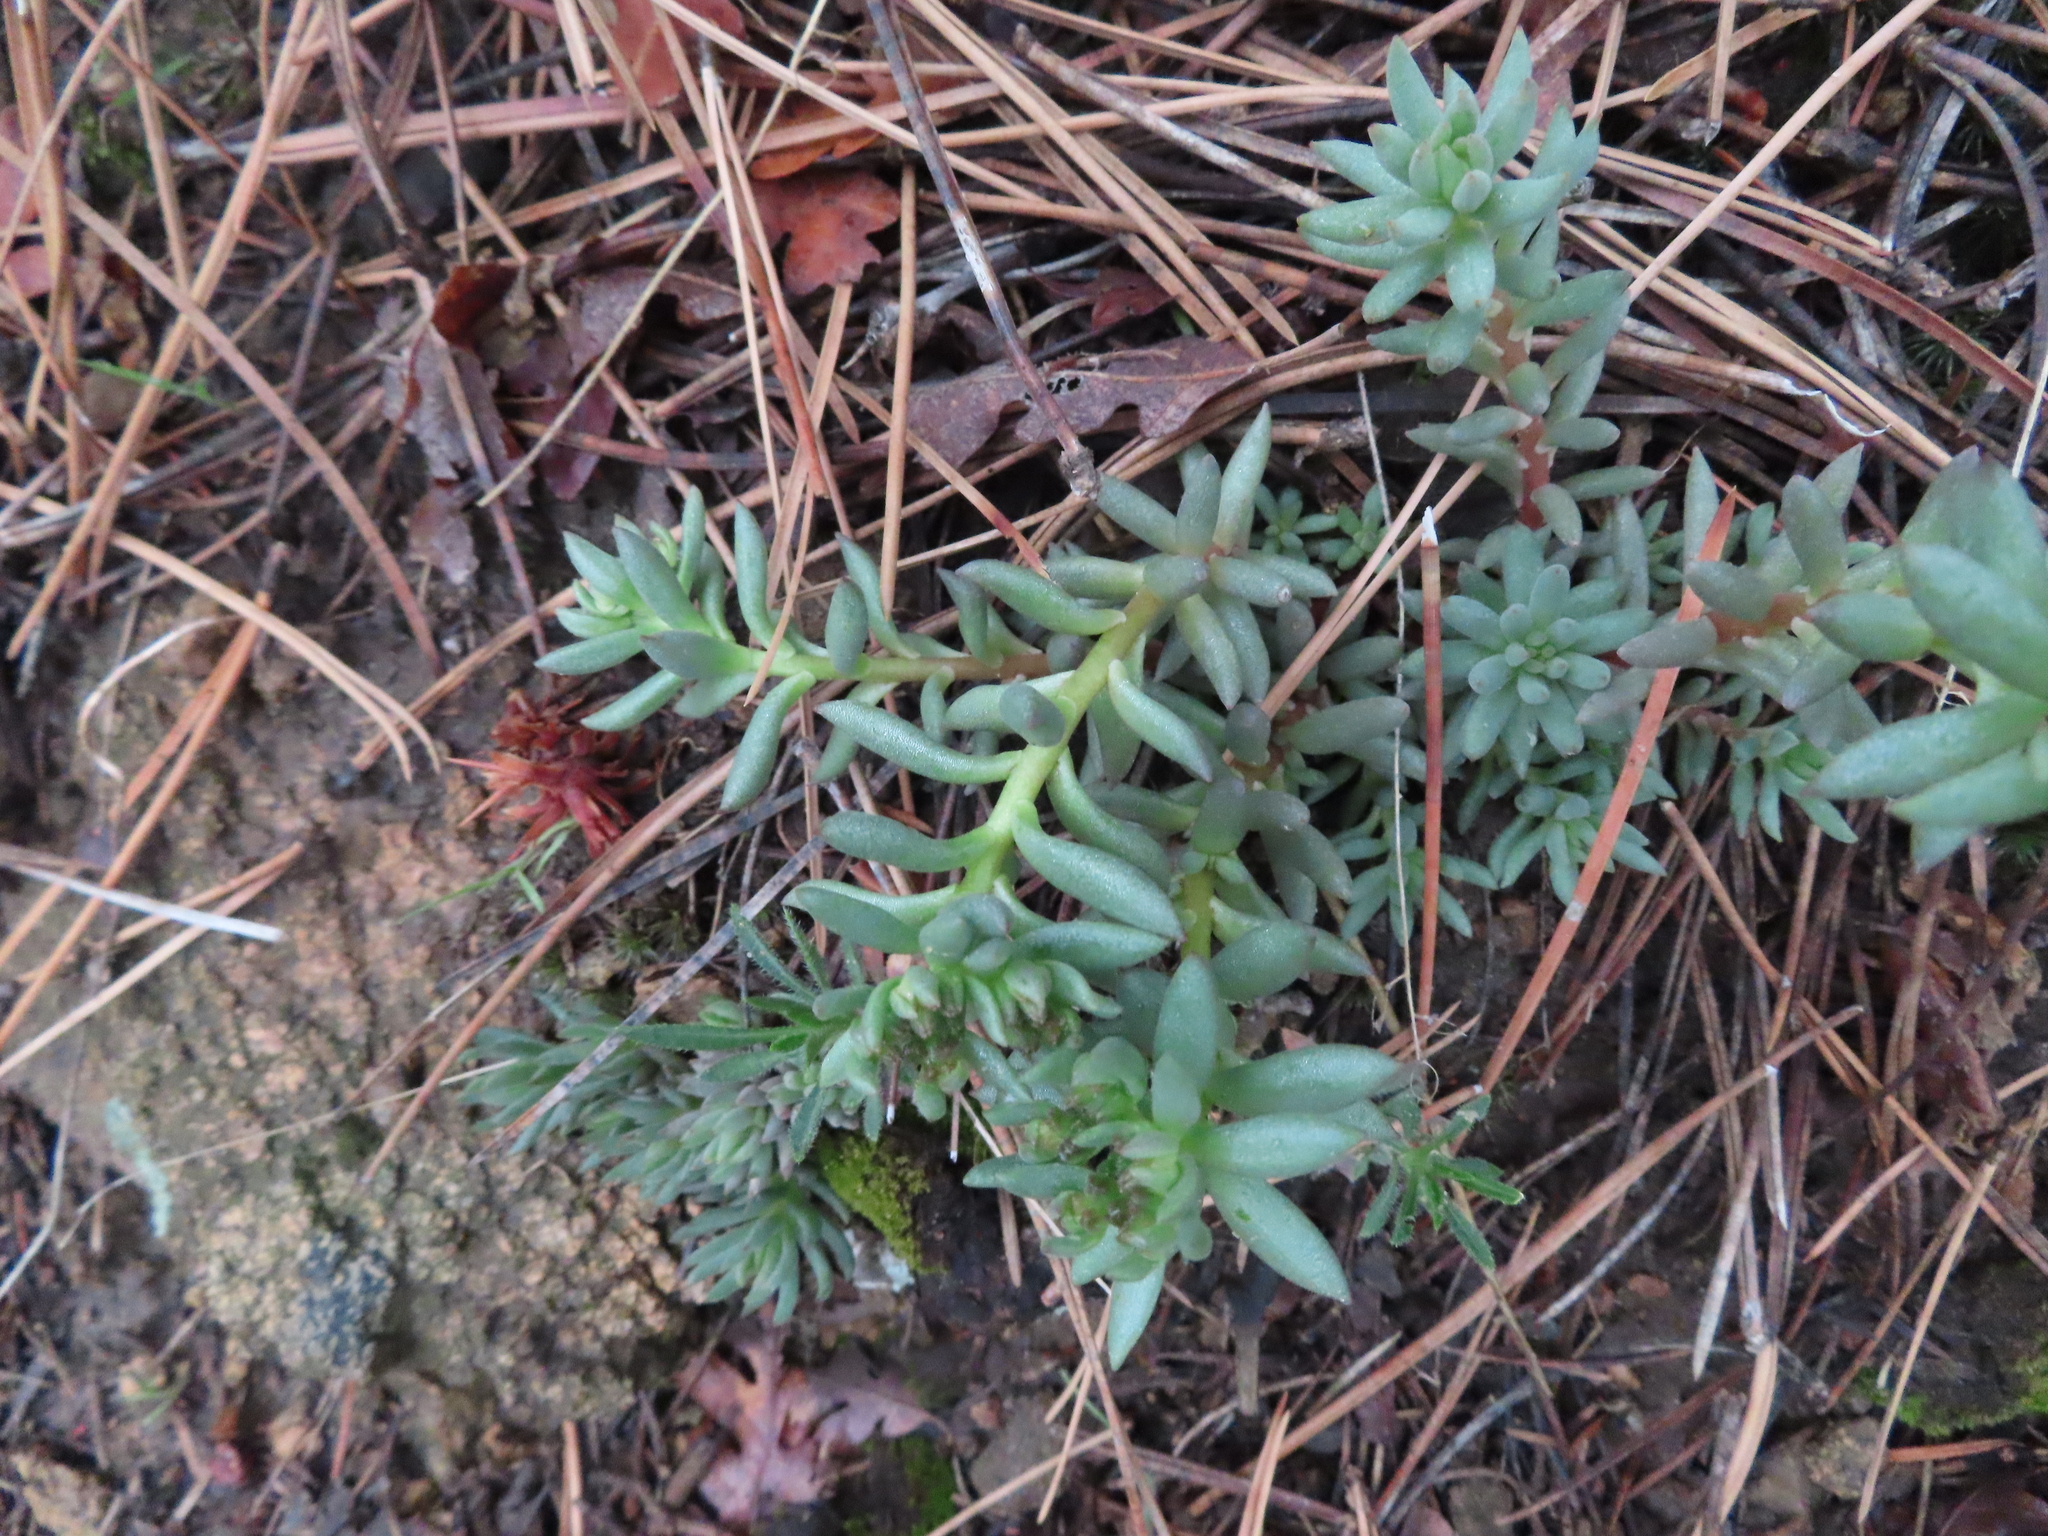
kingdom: Plantae
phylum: Tracheophyta
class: Magnoliopsida
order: Saxifragales
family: Crassulaceae
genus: Sedum
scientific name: Sedum lanceolatum
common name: Common stonecrop
